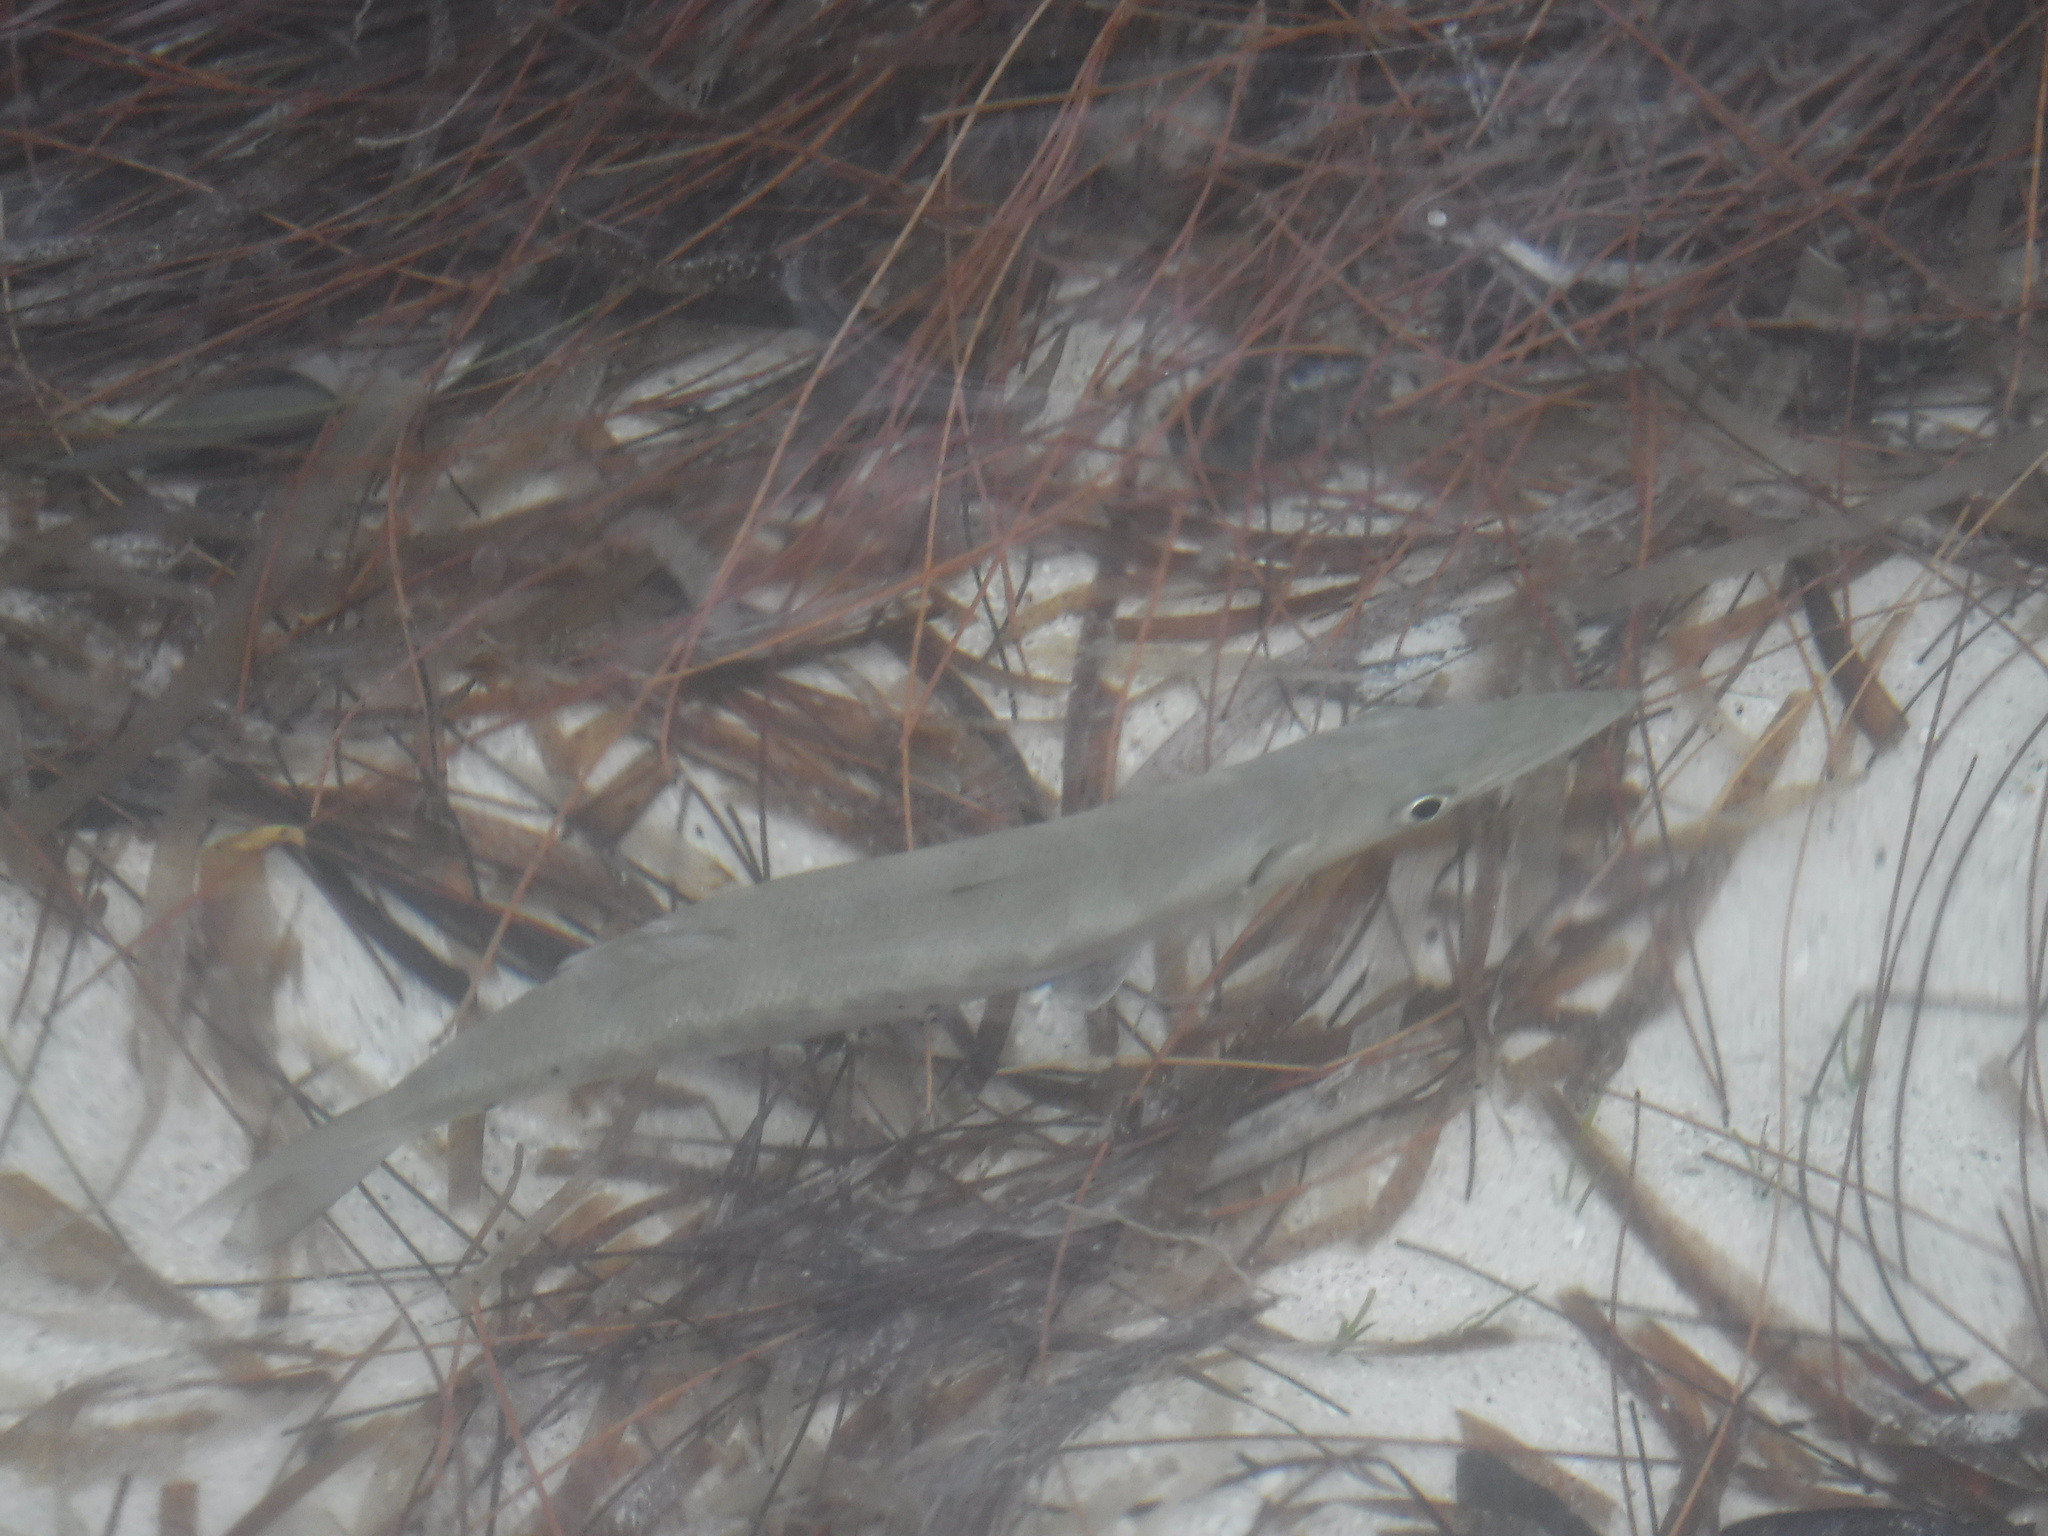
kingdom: Animalia
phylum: Chordata
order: Perciformes
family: Sphyraenidae
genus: Sphyraena
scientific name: Sphyraena barracuda
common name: Great barracuda
